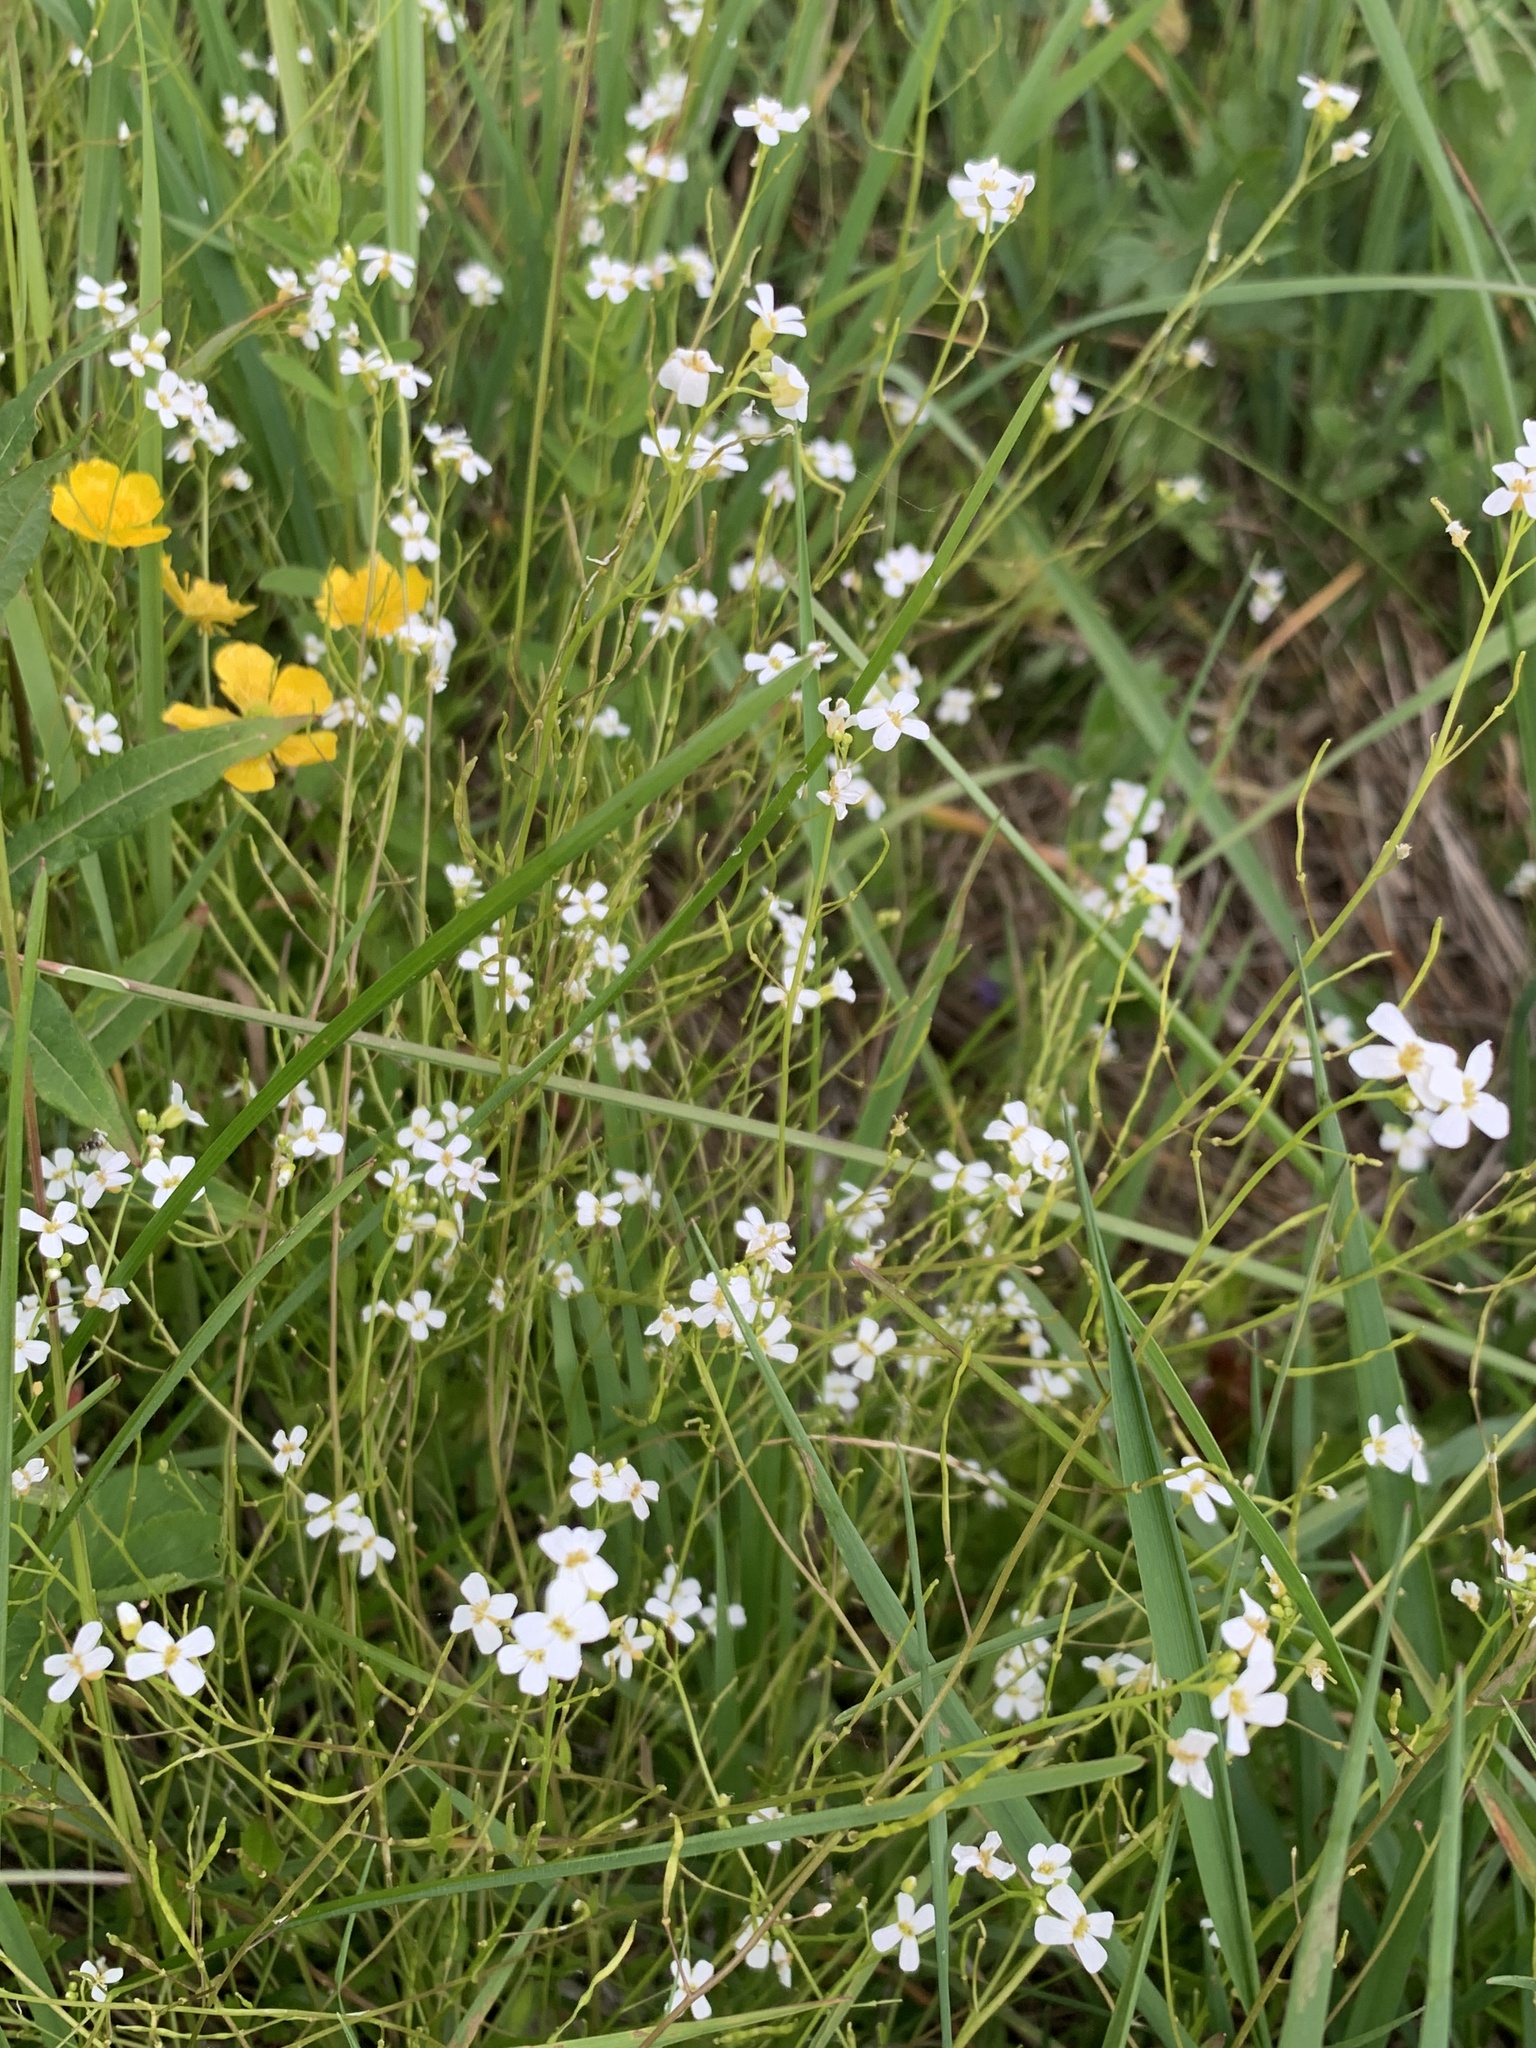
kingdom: Plantae
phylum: Tracheophyta
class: Magnoliopsida
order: Brassicales
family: Brassicaceae
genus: Arabidopsis
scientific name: Arabidopsis halleri
